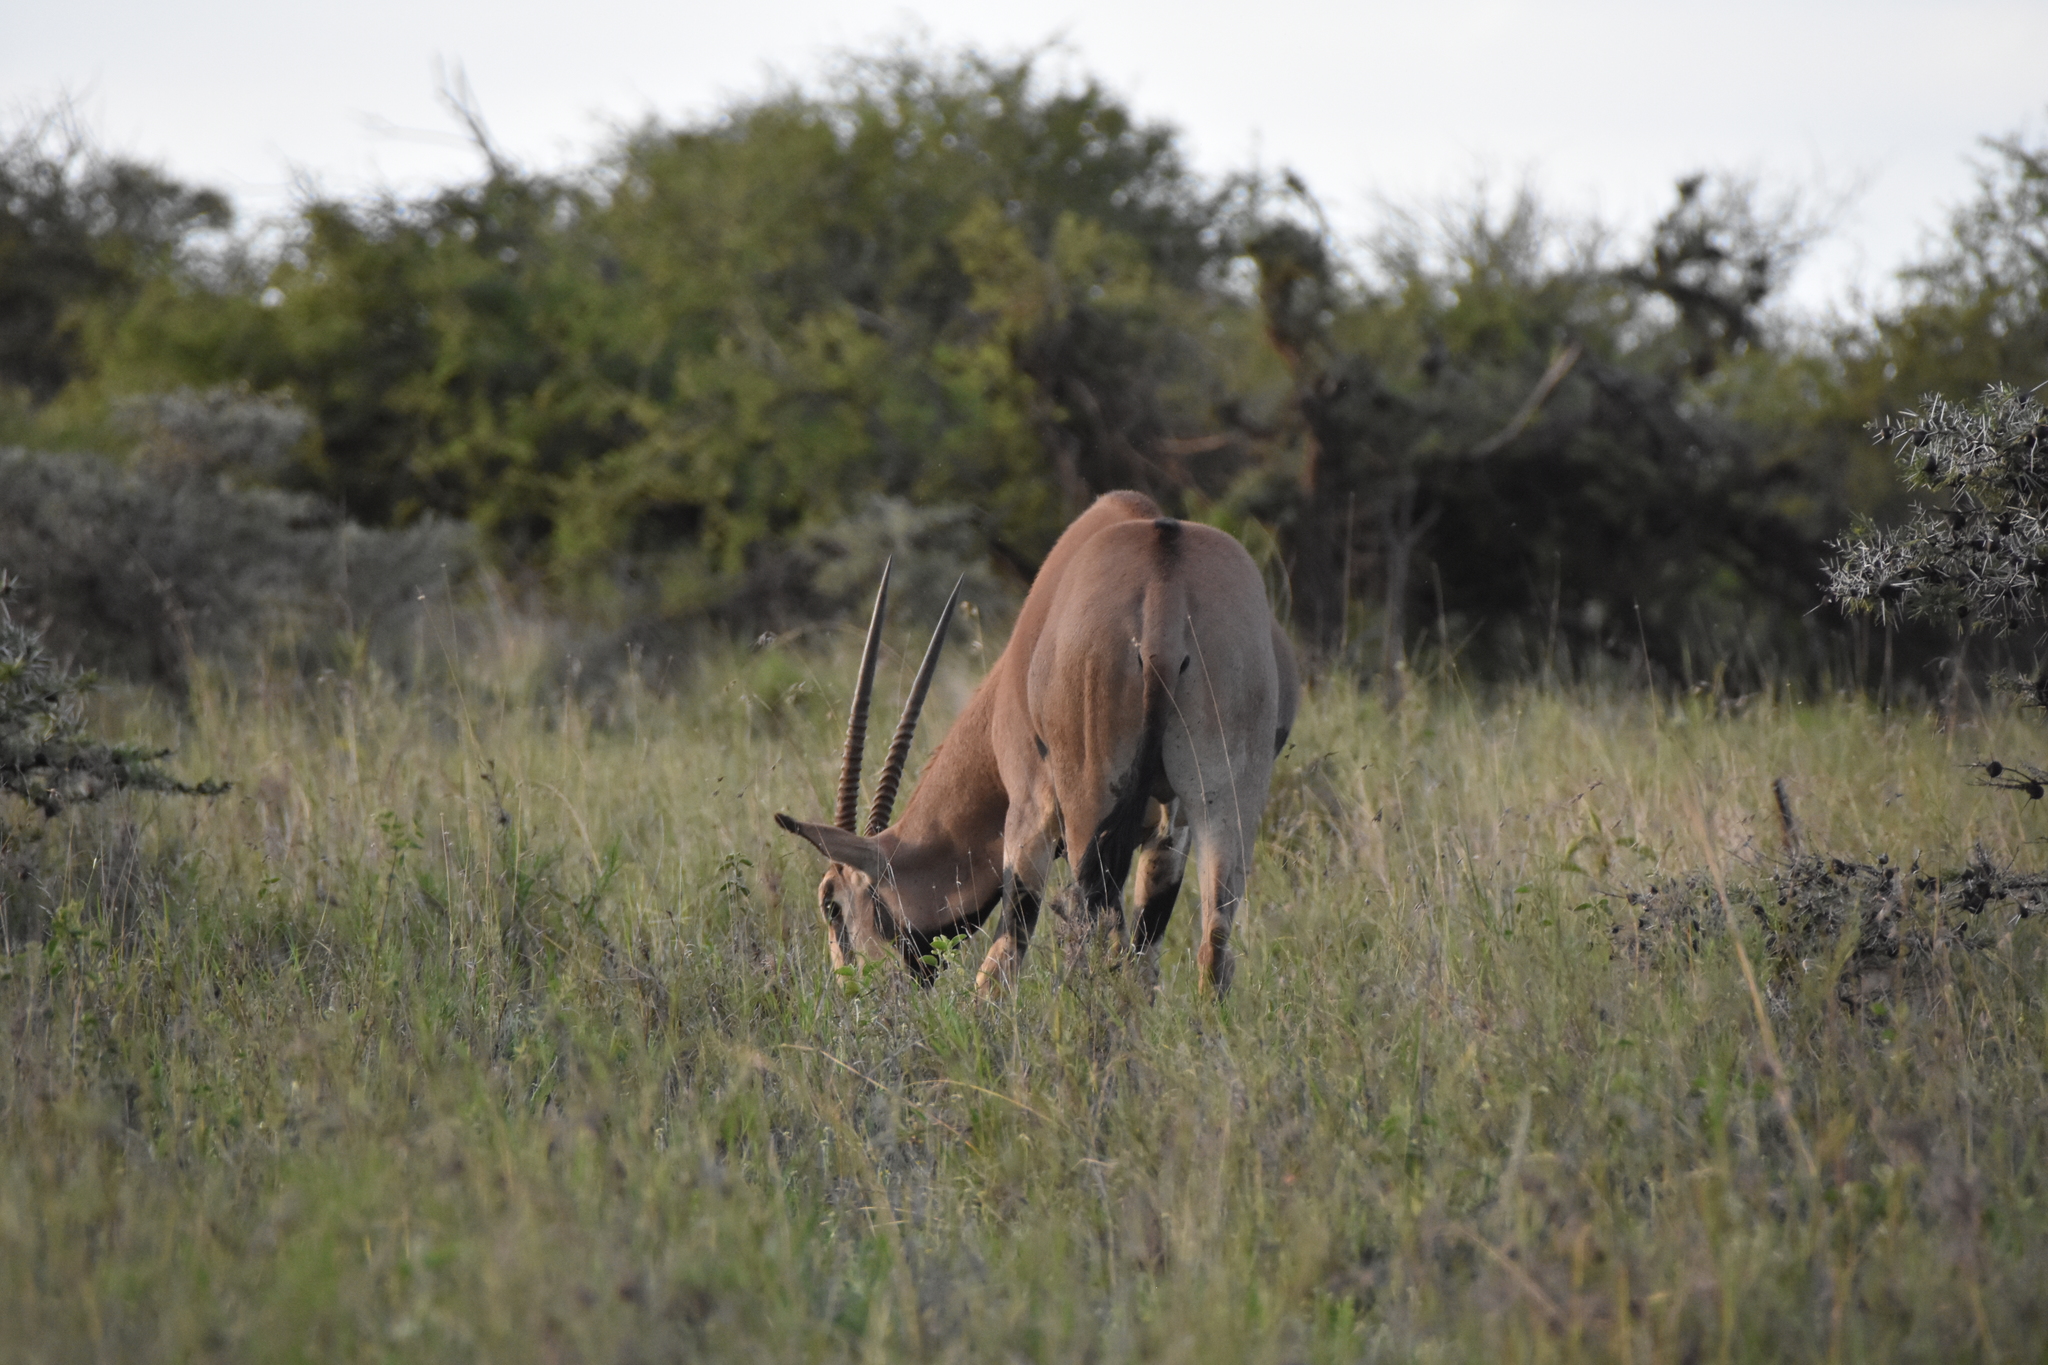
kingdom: Animalia
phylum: Chordata
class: Mammalia
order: Artiodactyla
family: Bovidae
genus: Oryx
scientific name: Oryx beisa
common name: Beisa
